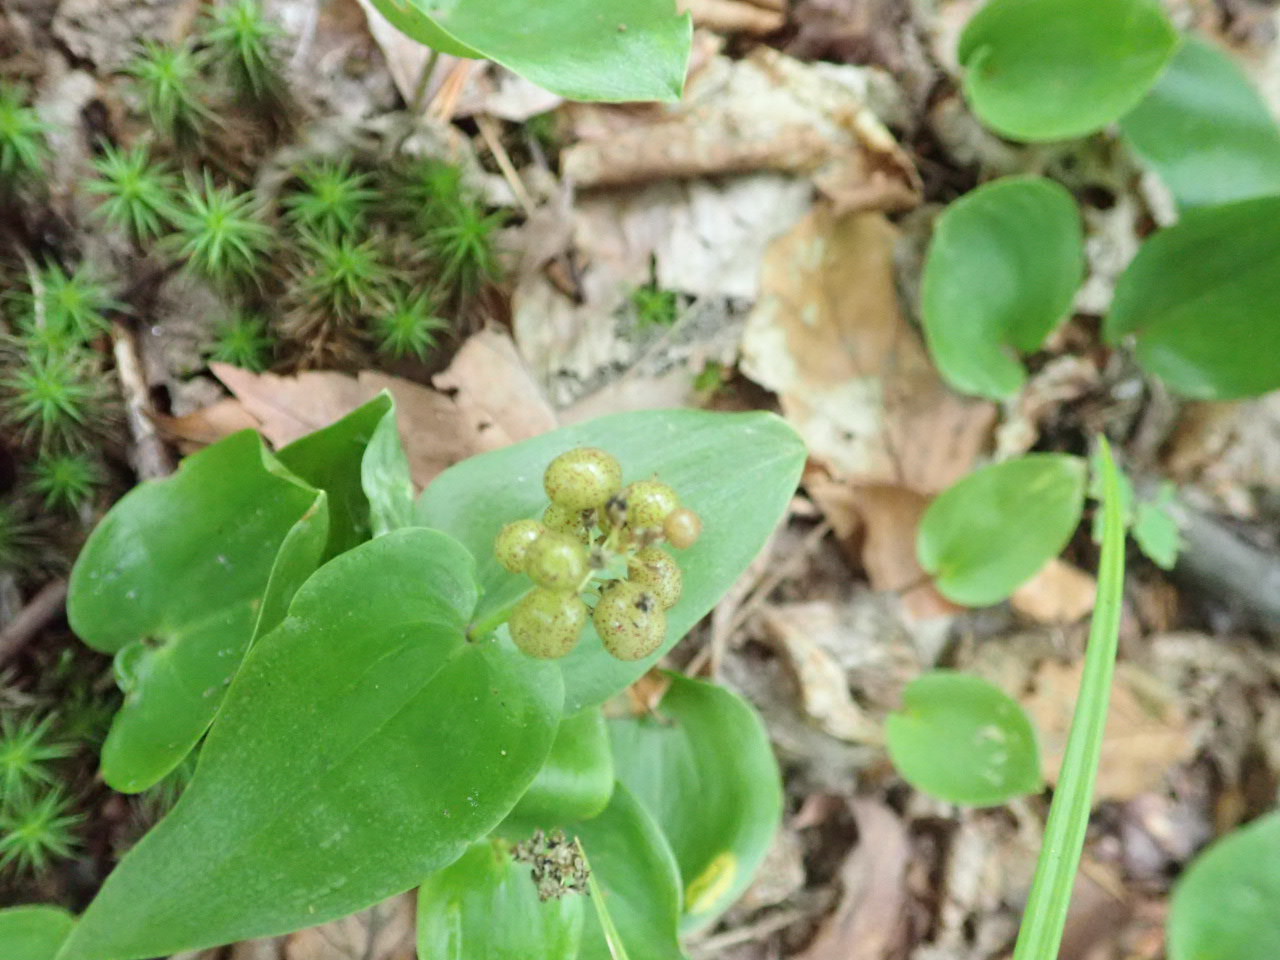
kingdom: Plantae
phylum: Tracheophyta
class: Liliopsida
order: Asparagales
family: Asparagaceae
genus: Maianthemum
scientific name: Maianthemum canadense
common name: False lily-of-the-valley
